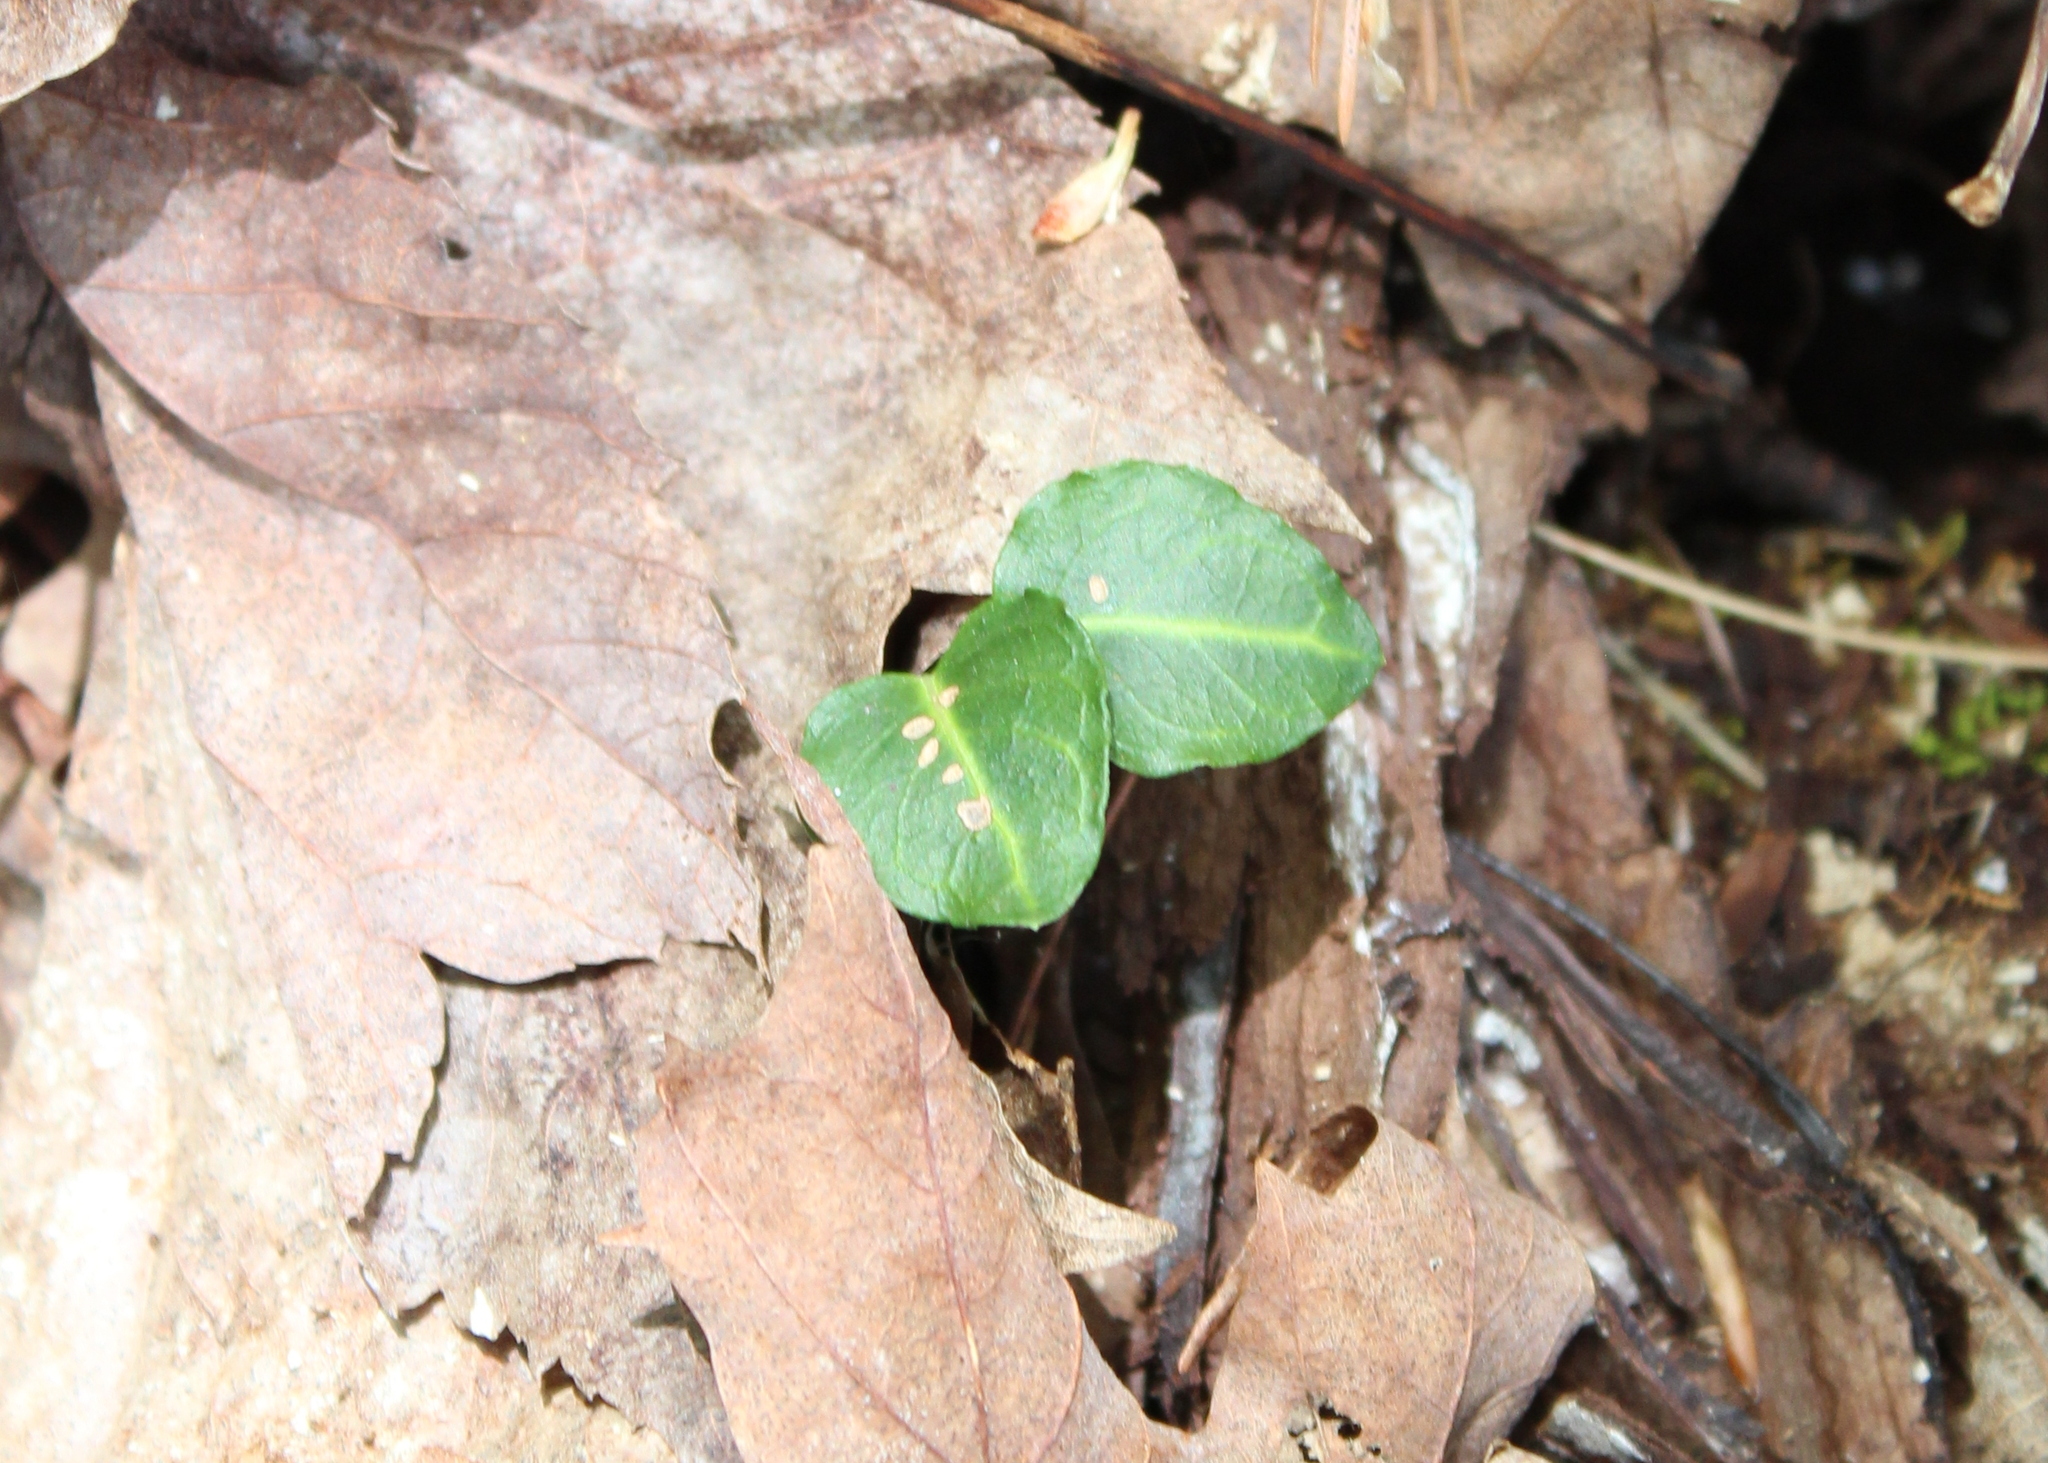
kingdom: Plantae
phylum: Tracheophyta
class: Magnoliopsida
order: Gentianales
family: Rubiaceae
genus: Mitchella
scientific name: Mitchella repens
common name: Partridge-berry
